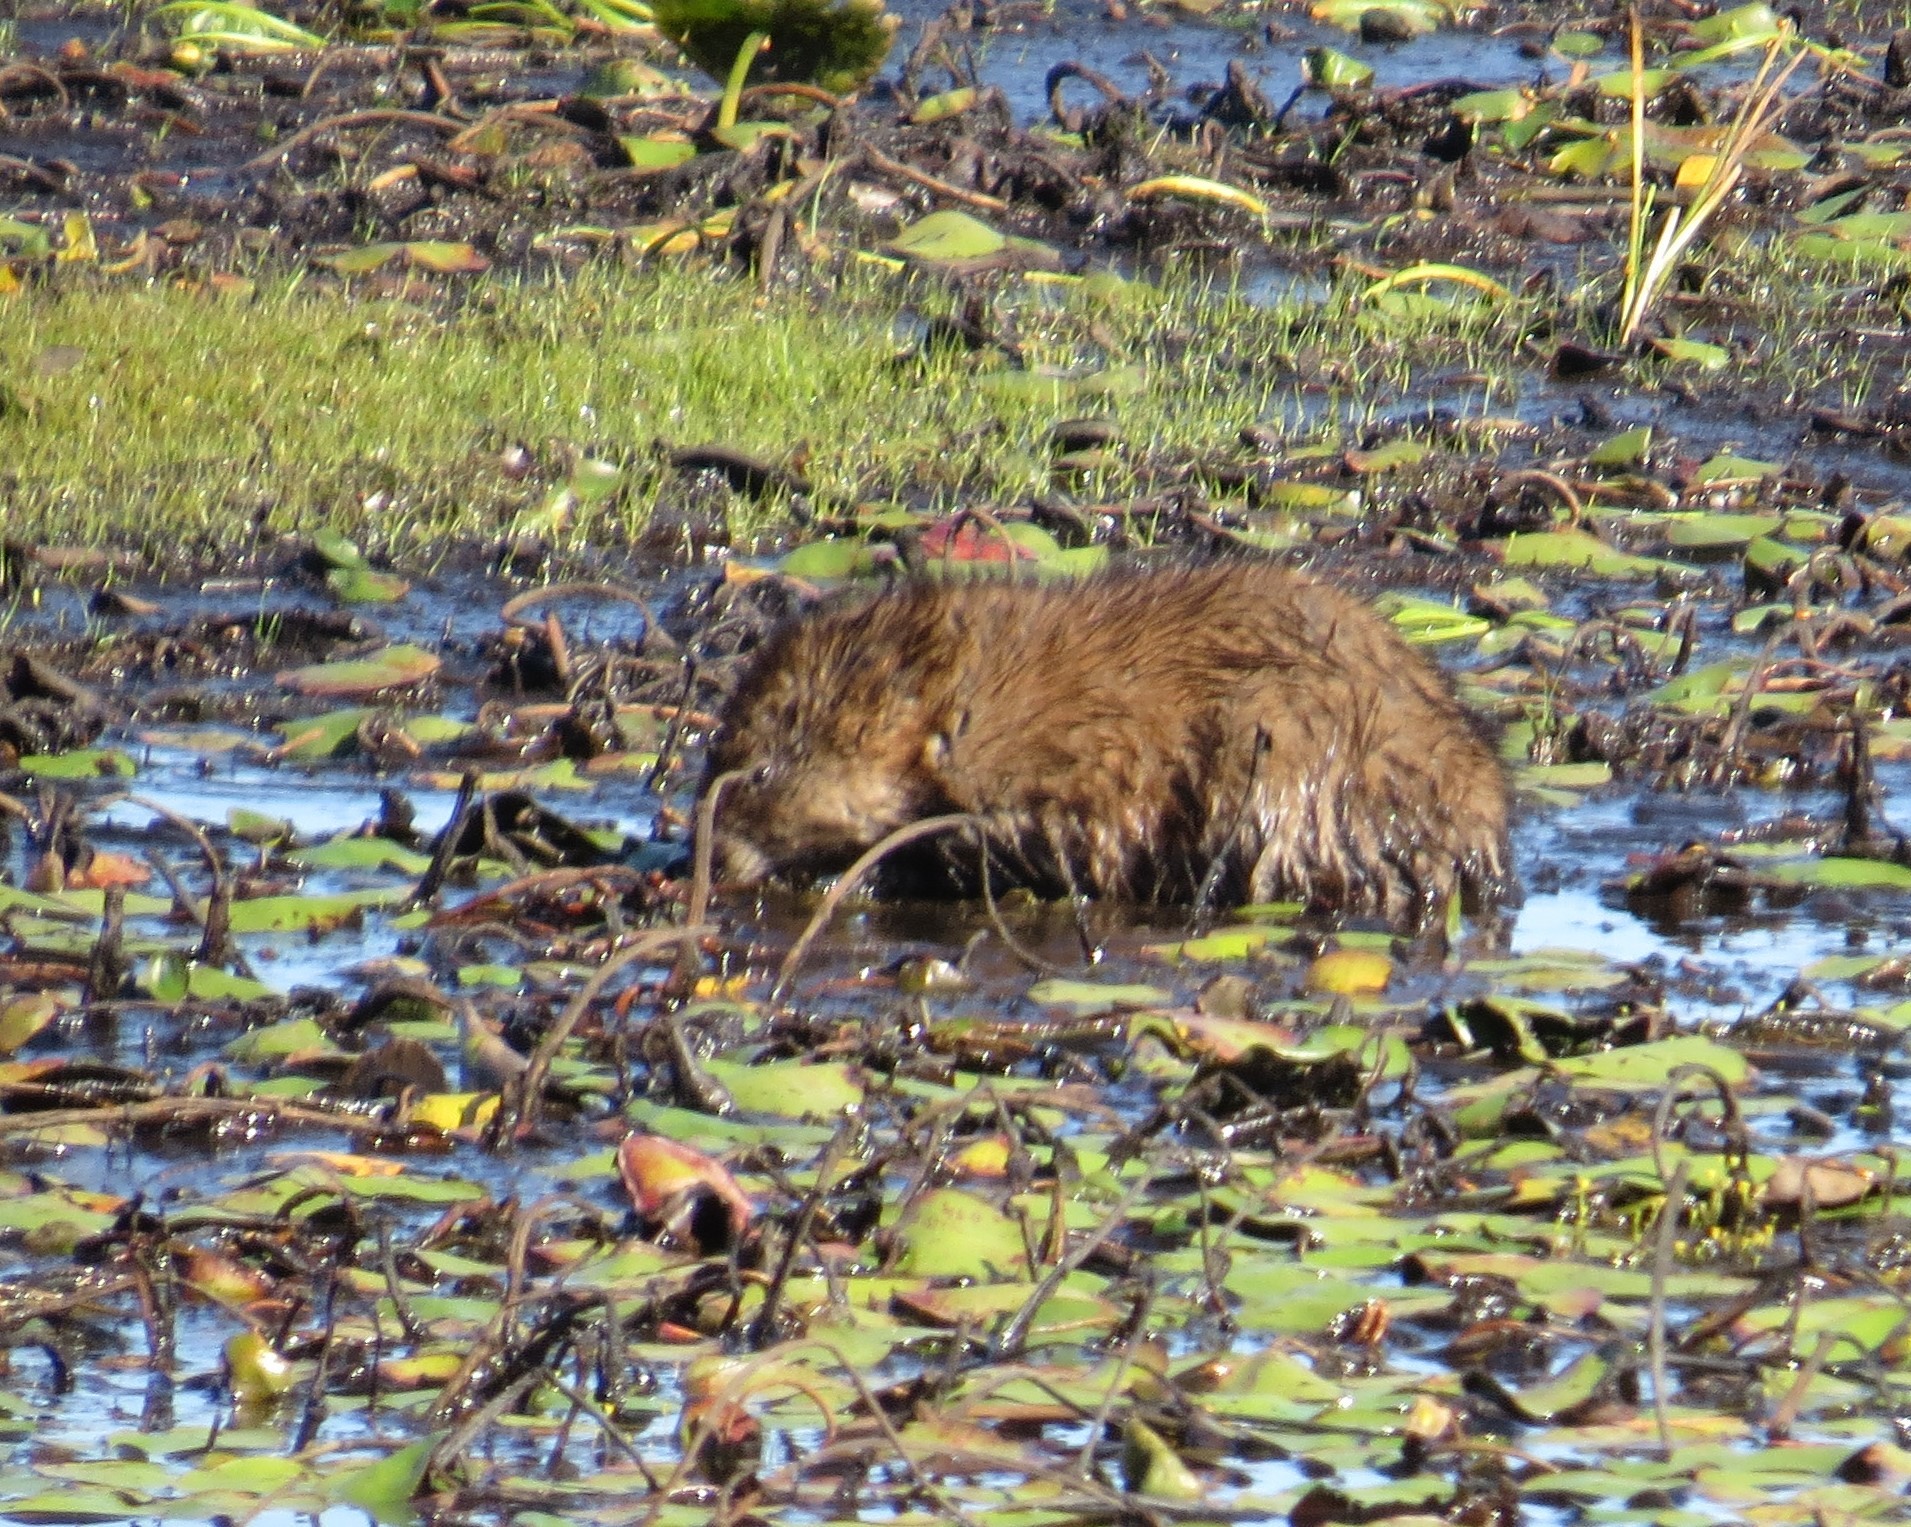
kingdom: Animalia
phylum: Chordata
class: Mammalia
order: Rodentia
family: Cricetidae
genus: Ondatra
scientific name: Ondatra zibethicus
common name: Muskrat
